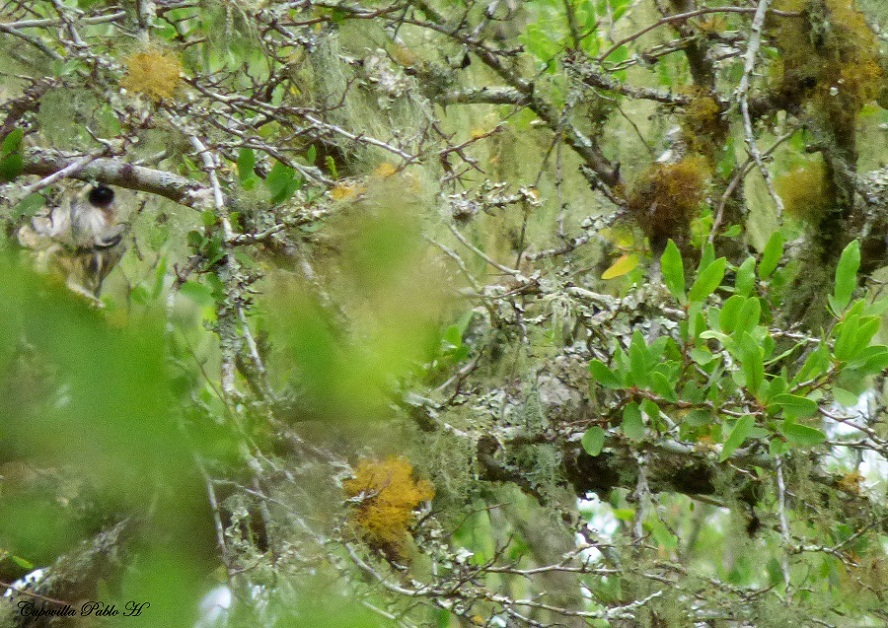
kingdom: Animalia
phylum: Chordata
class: Aves
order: Strigiformes
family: Strigidae
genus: Pseudoscops
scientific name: Pseudoscops clamator
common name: Striped owl
